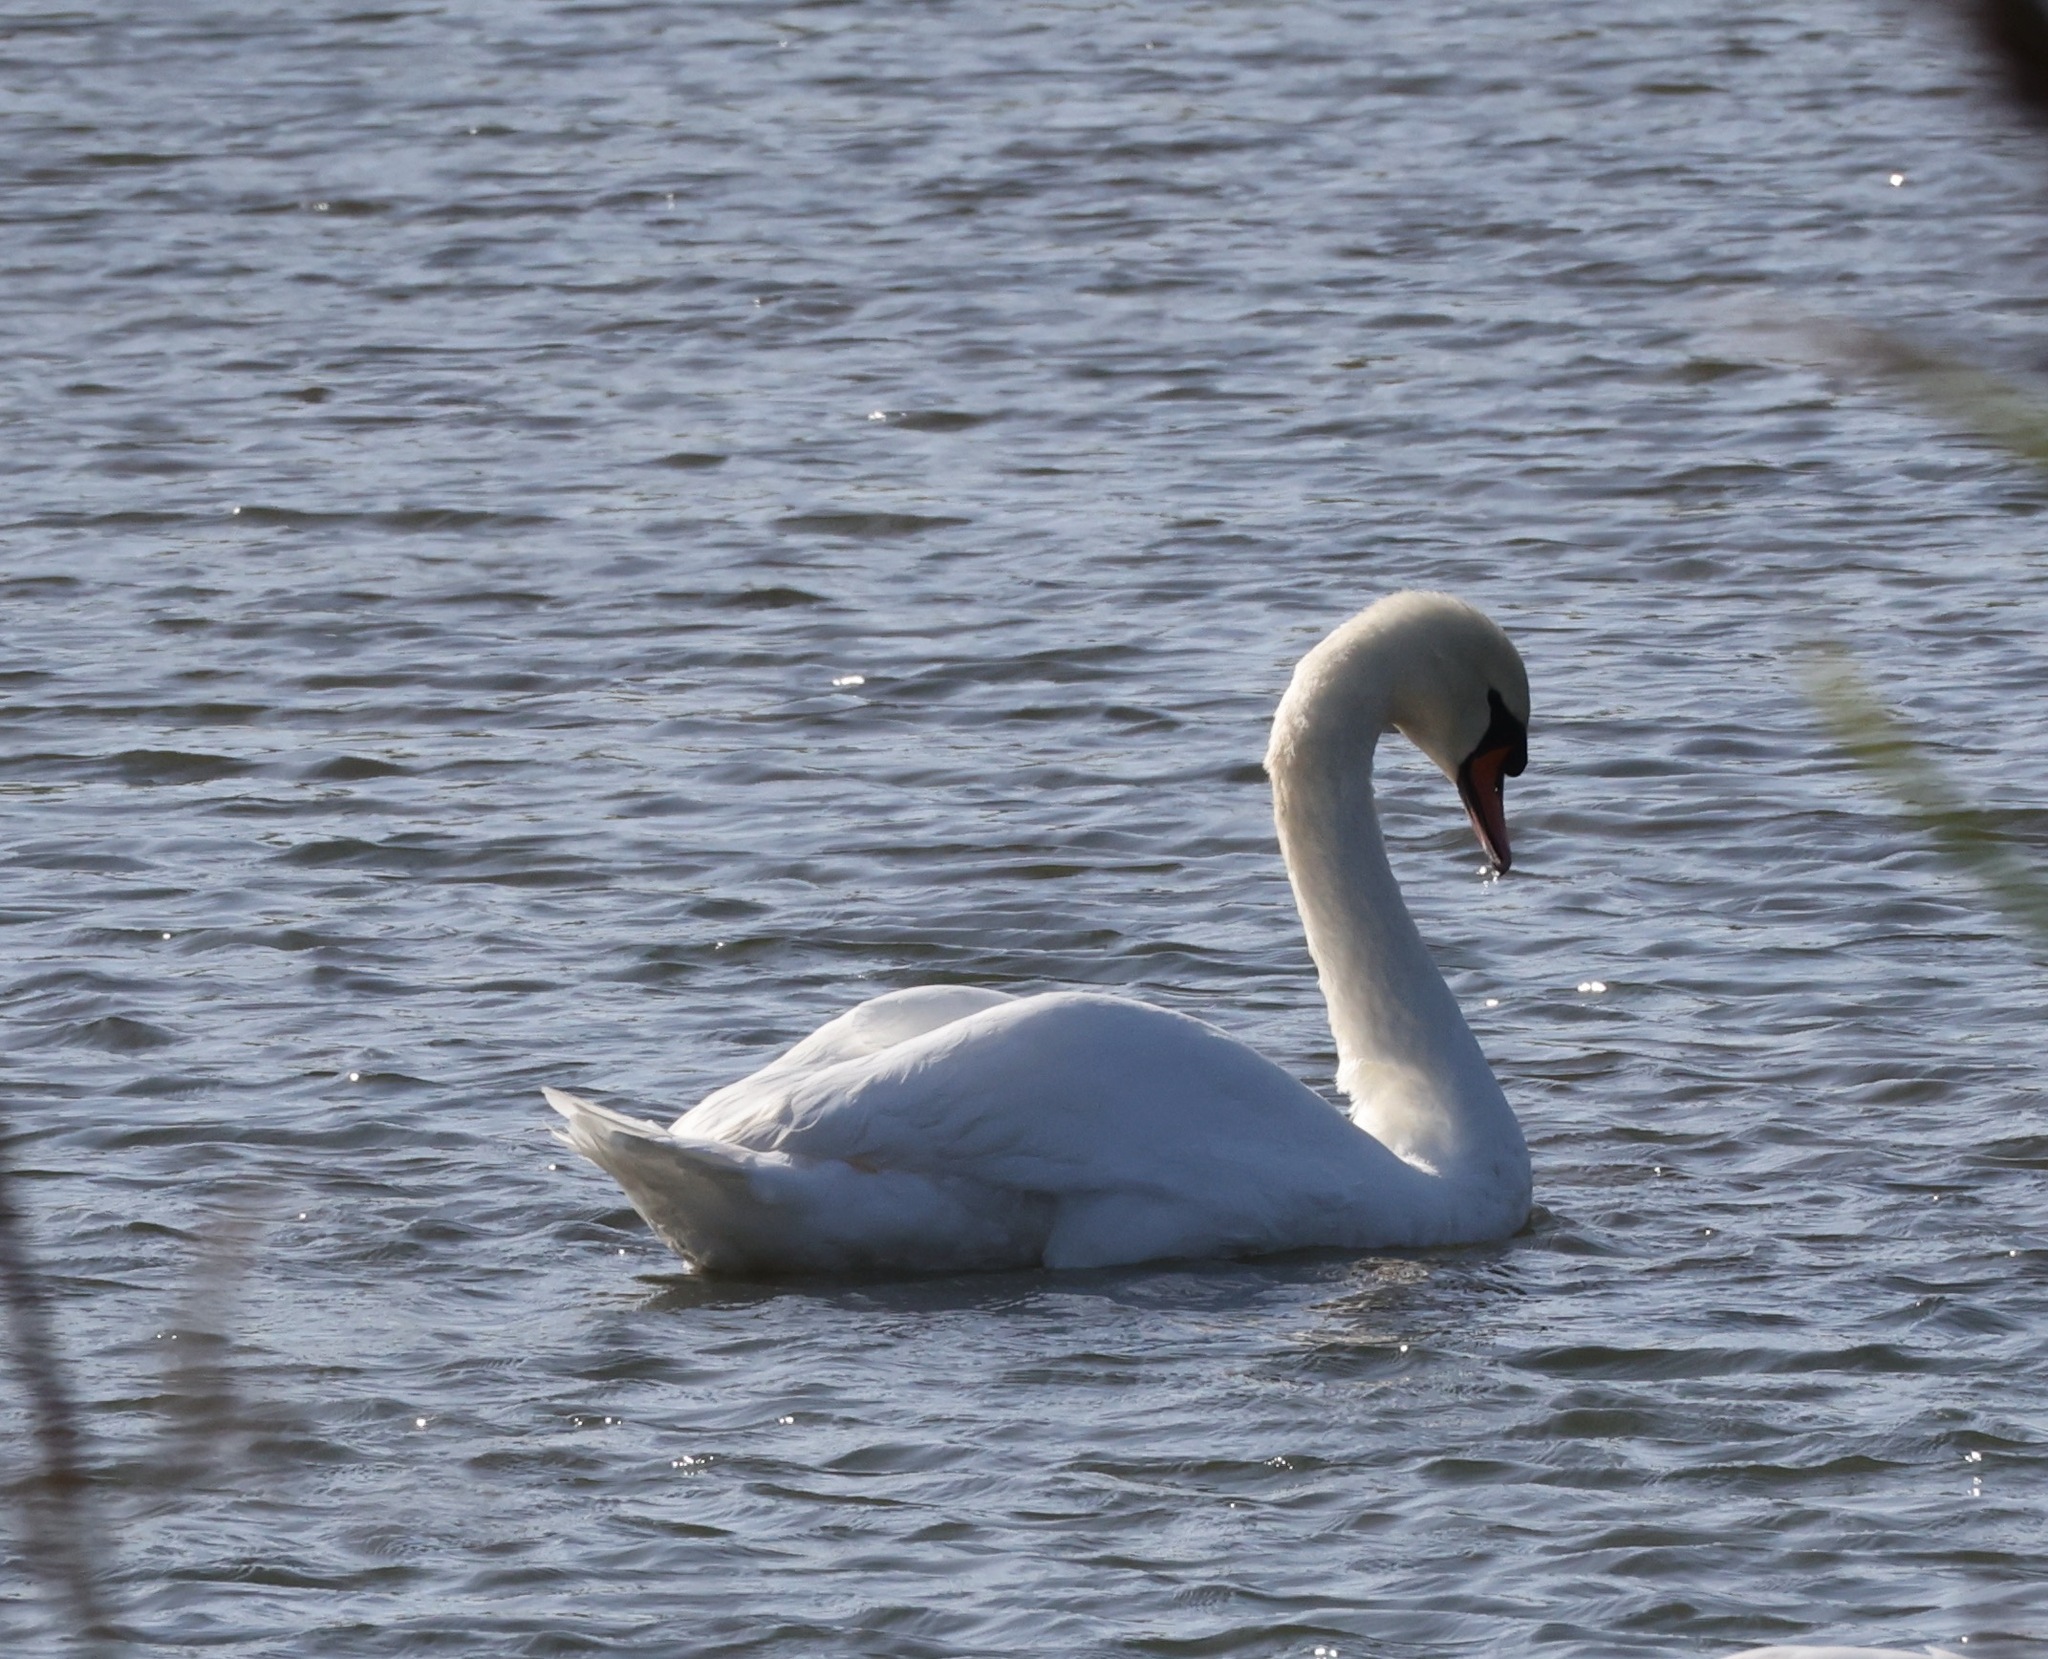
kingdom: Animalia
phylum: Chordata
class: Aves
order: Anseriformes
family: Anatidae
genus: Cygnus
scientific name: Cygnus olor
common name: Mute swan
